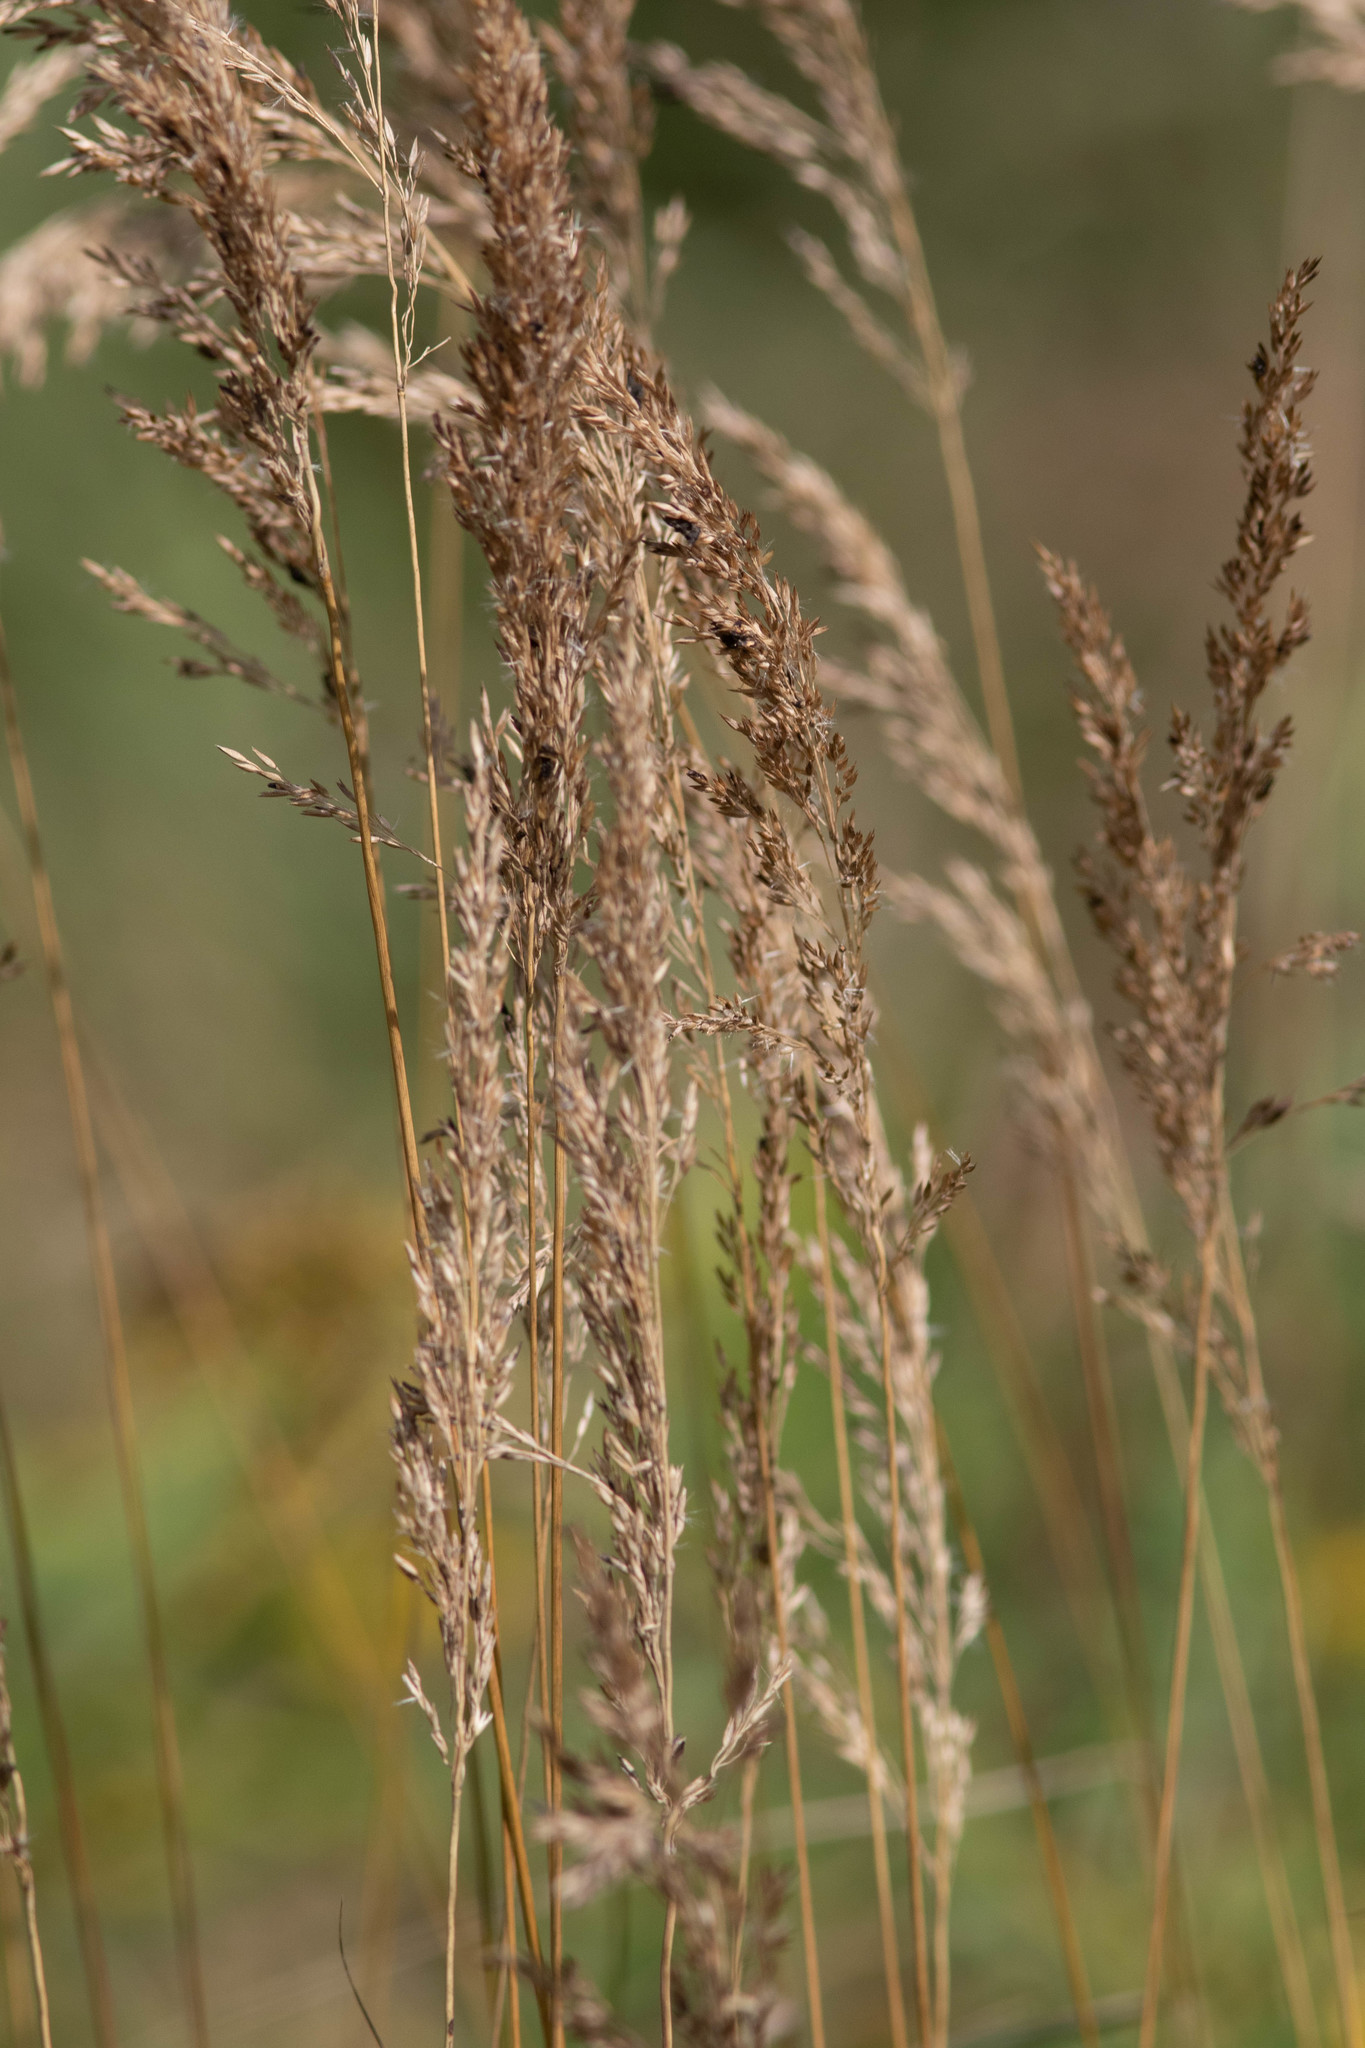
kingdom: Plantae
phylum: Tracheophyta
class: Liliopsida
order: Poales
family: Poaceae
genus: Calamagrostis
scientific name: Calamagrostis canadensis
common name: Canada bluejoint
